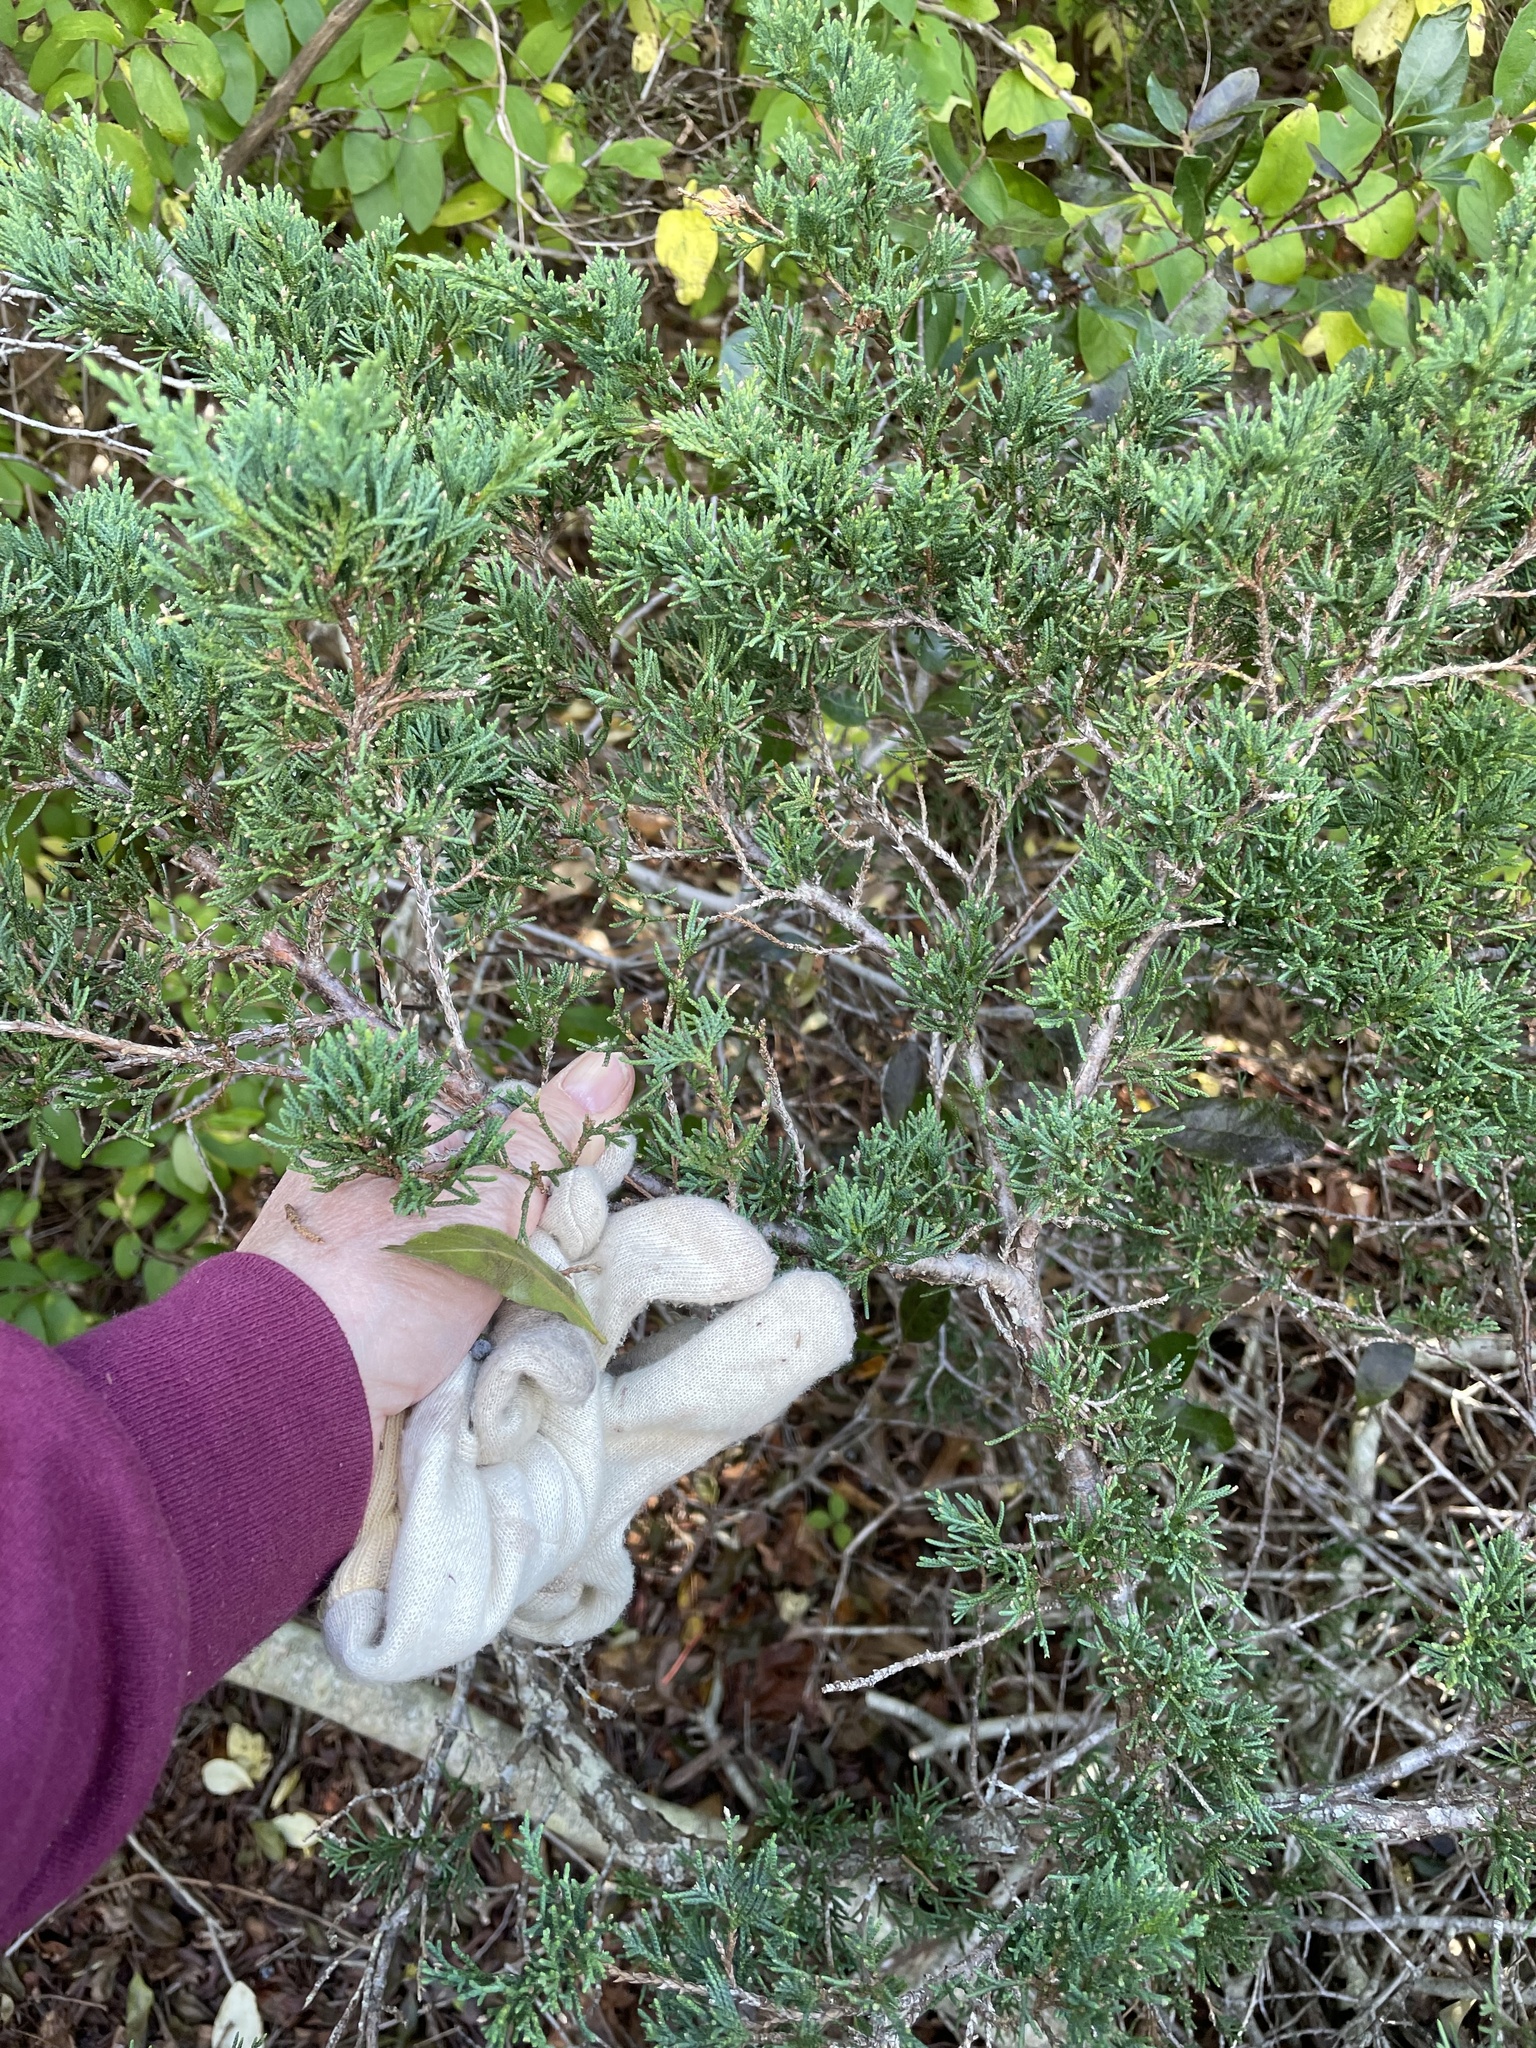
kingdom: Plantae
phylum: Tracheophyta
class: Pinopsida
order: Pinales
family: Cupressaceae
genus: Juniperus
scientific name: Juniperus virginiana
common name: Red juniper
